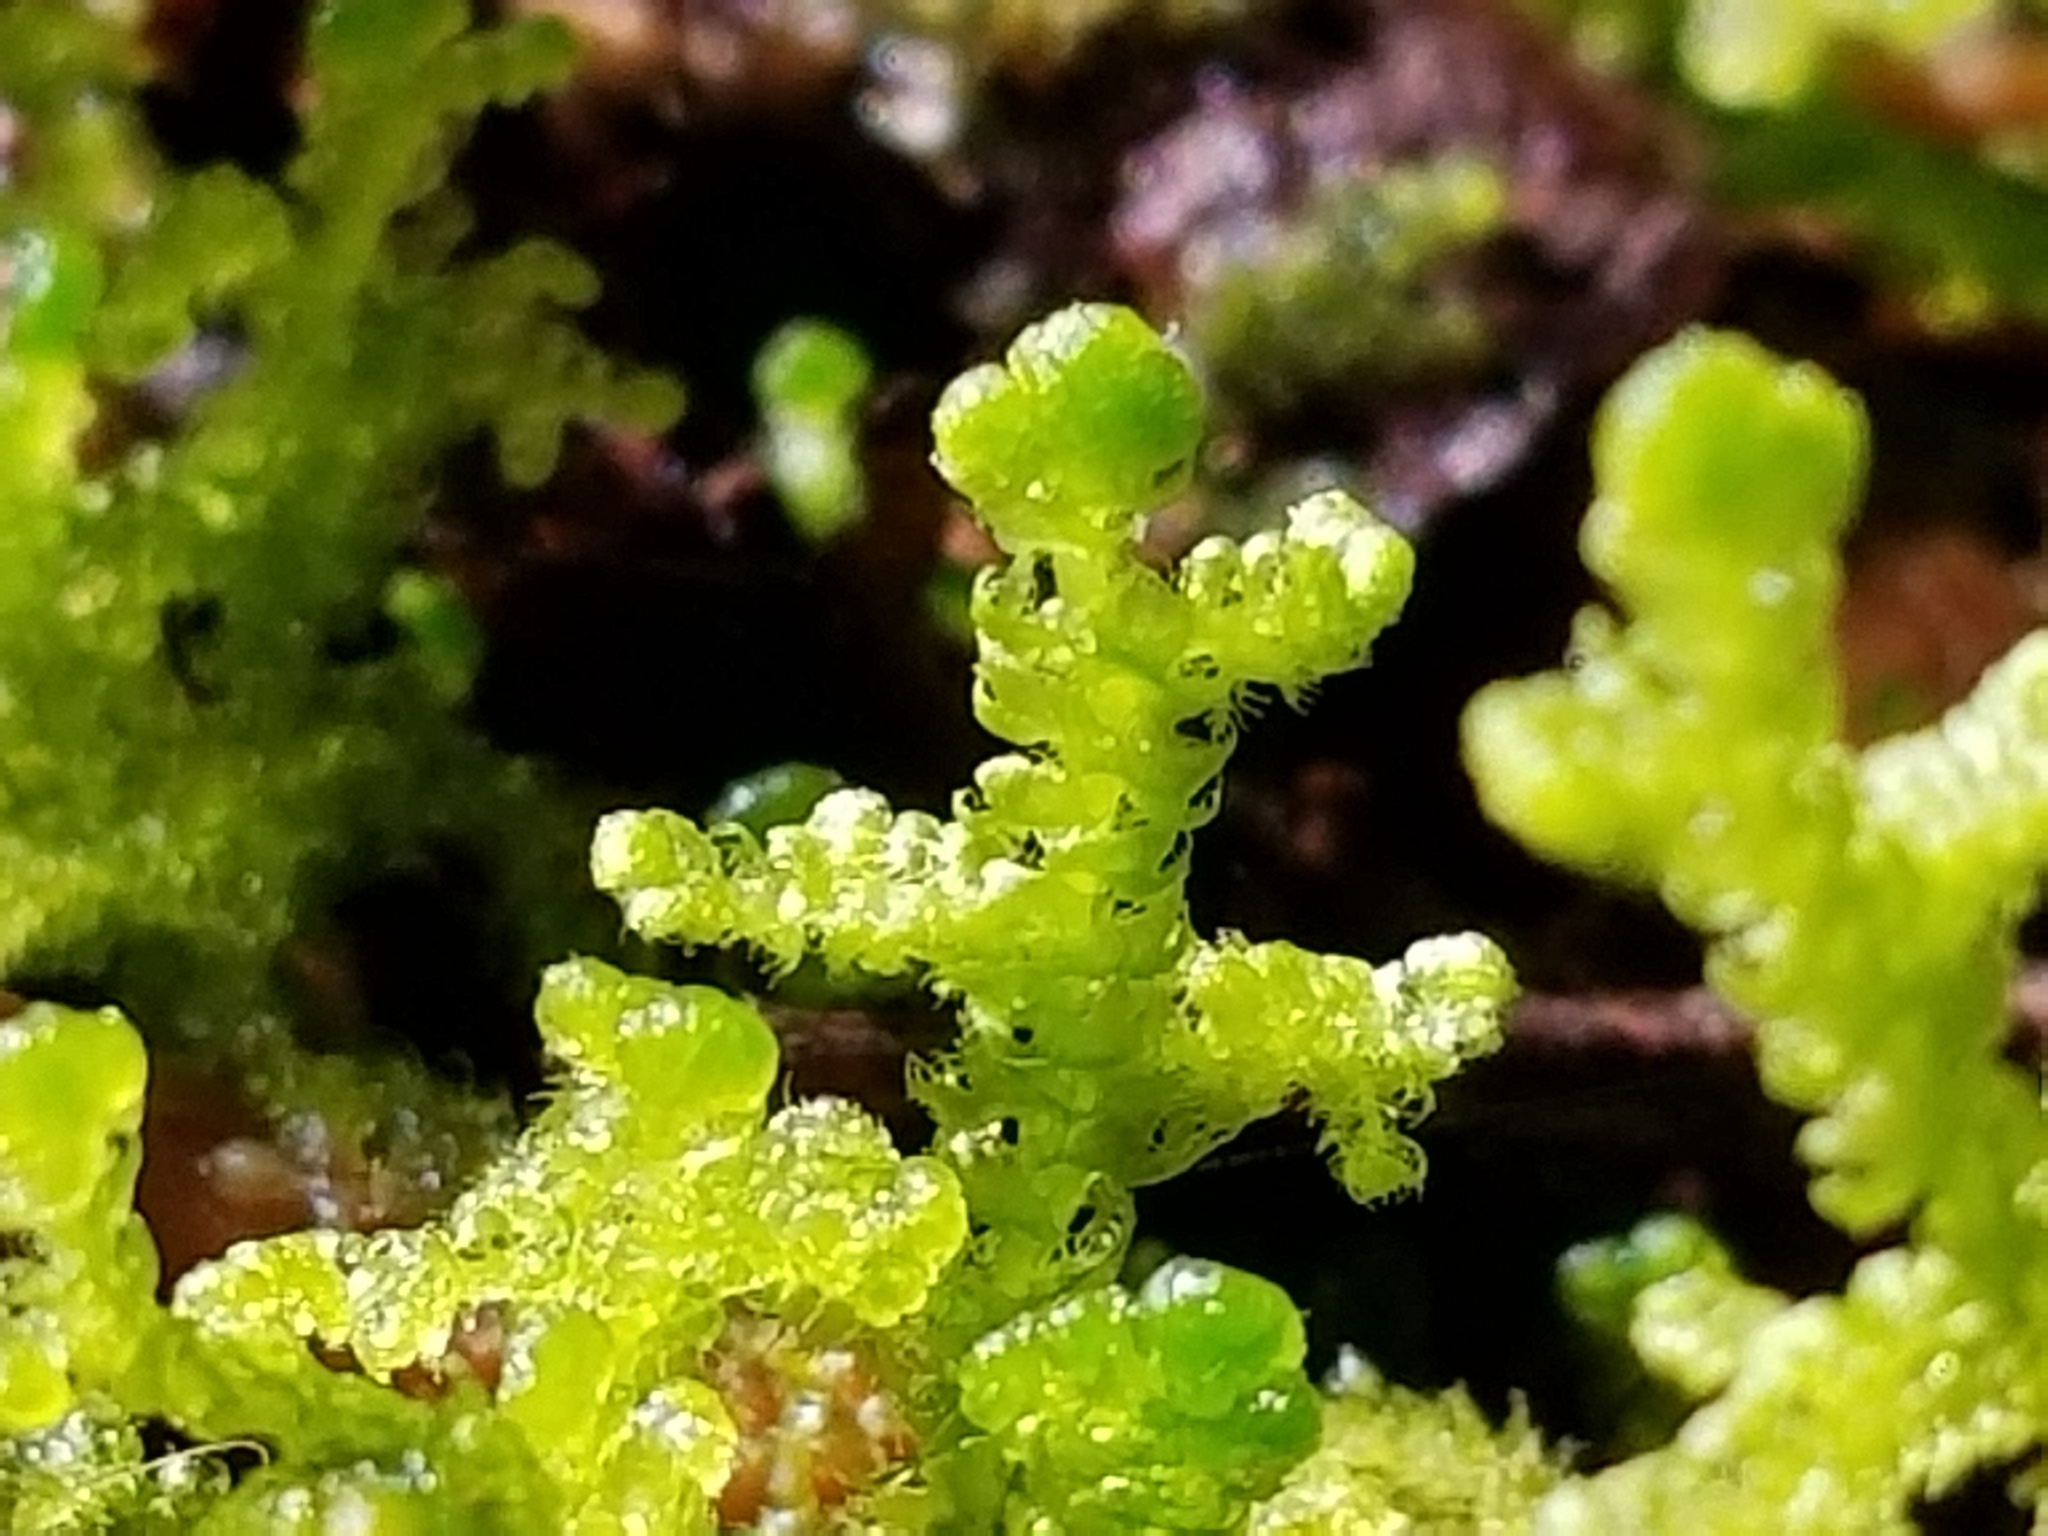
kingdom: Plantae
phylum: Marchantiophyta
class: Jungermanniopsida
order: Ptilidiales
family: Ptilidiaceae
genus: Ptilidium
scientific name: Ptilidium ciliare
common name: Ciliate fringewort
